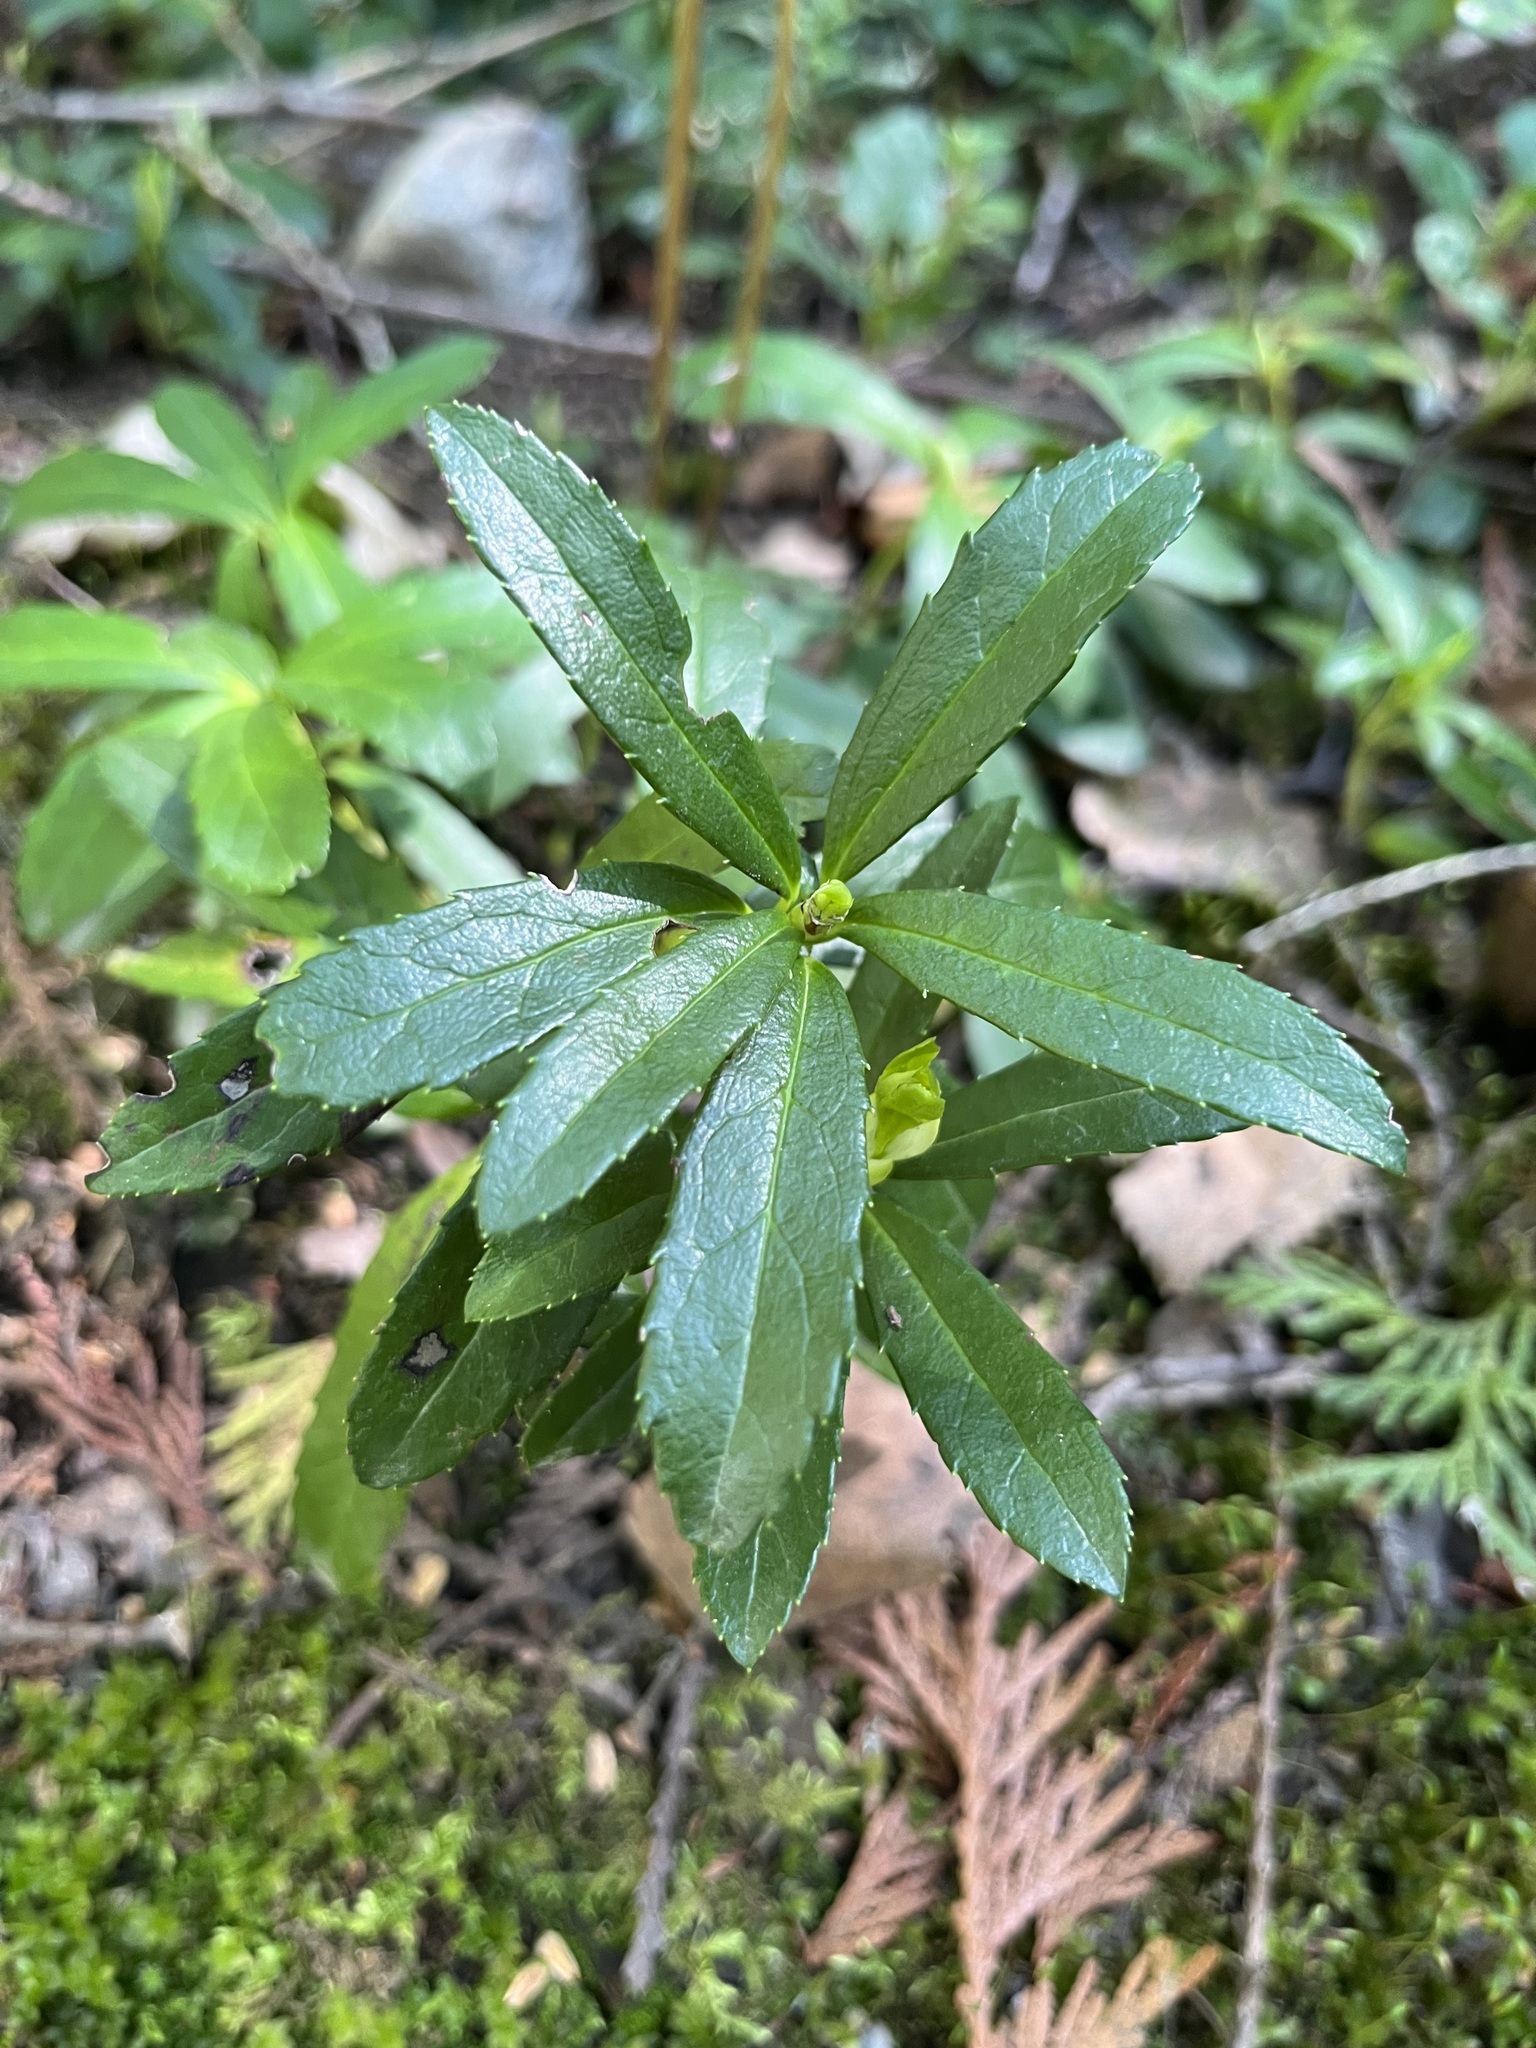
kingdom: Plantae
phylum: Tracheophyta
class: Magnoliopsida
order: Ericales
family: Ericaceae
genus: Chimaphila
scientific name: Chimaphila umbellata
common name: Pipsissewa
